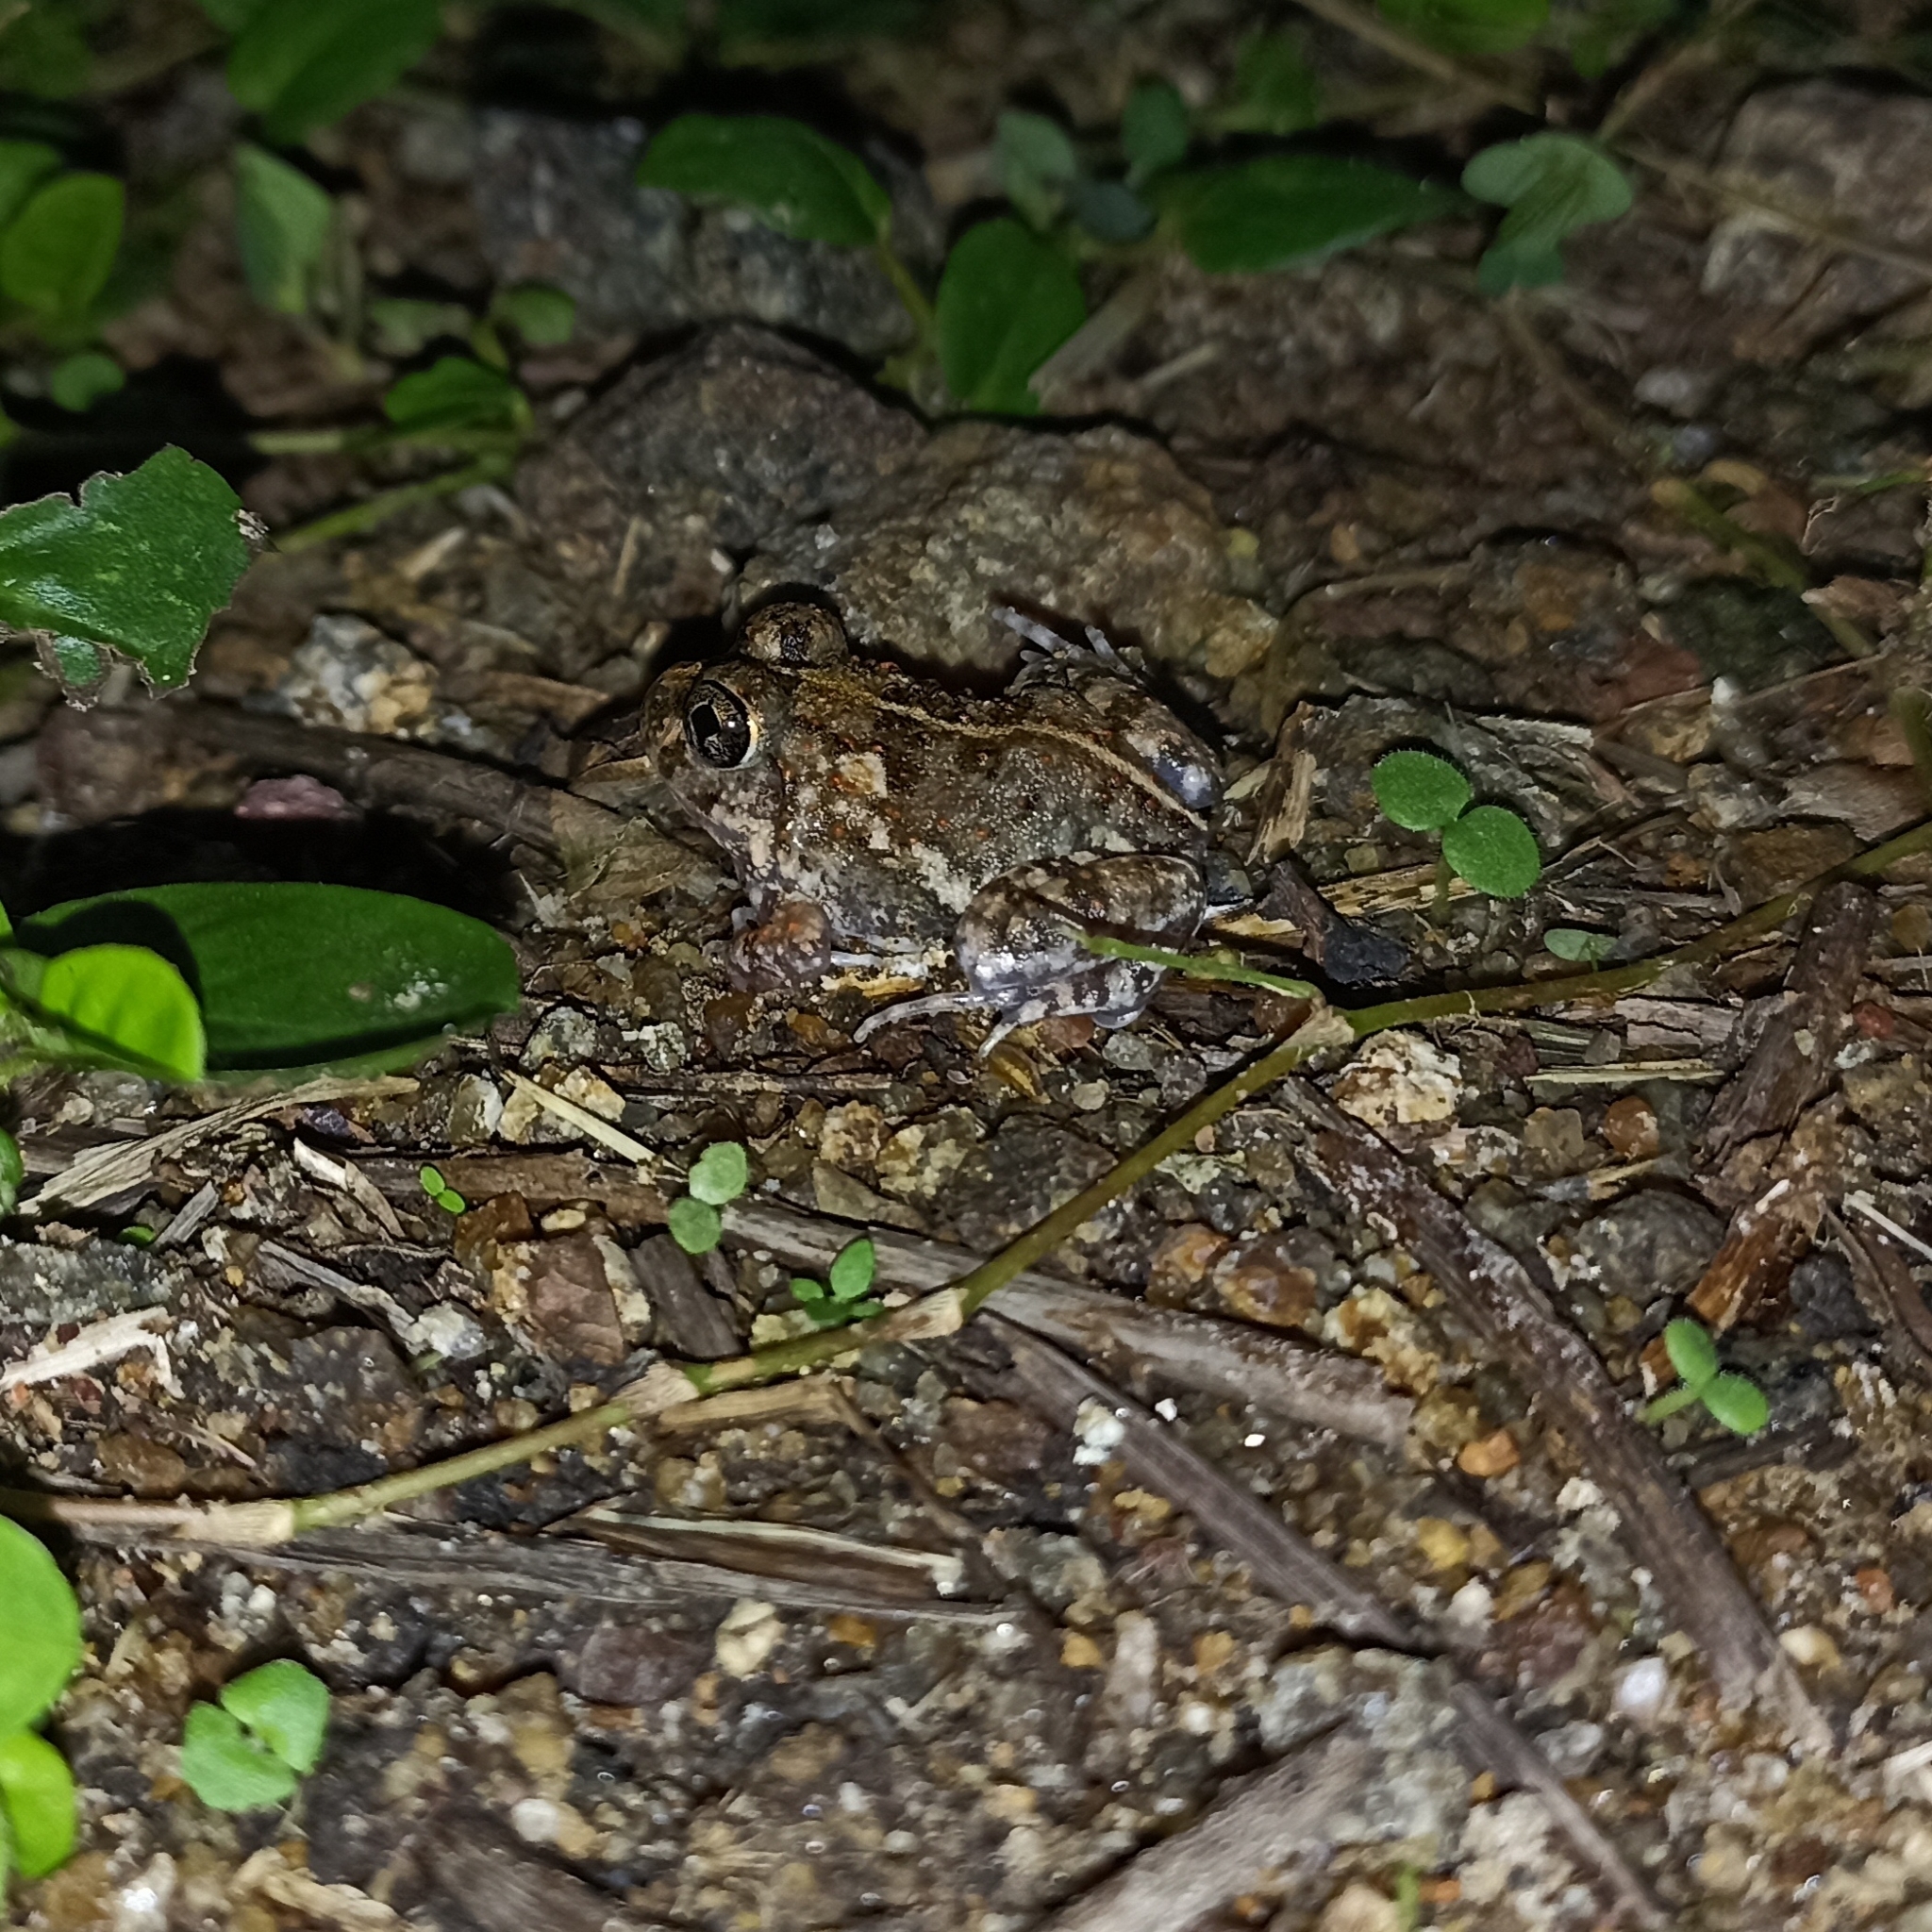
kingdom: Animalia
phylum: Chordata
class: Amphibia
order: Anura
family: Dicroglossidae
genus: Sphaerotheca
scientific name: Sphaerotheca breviceps
